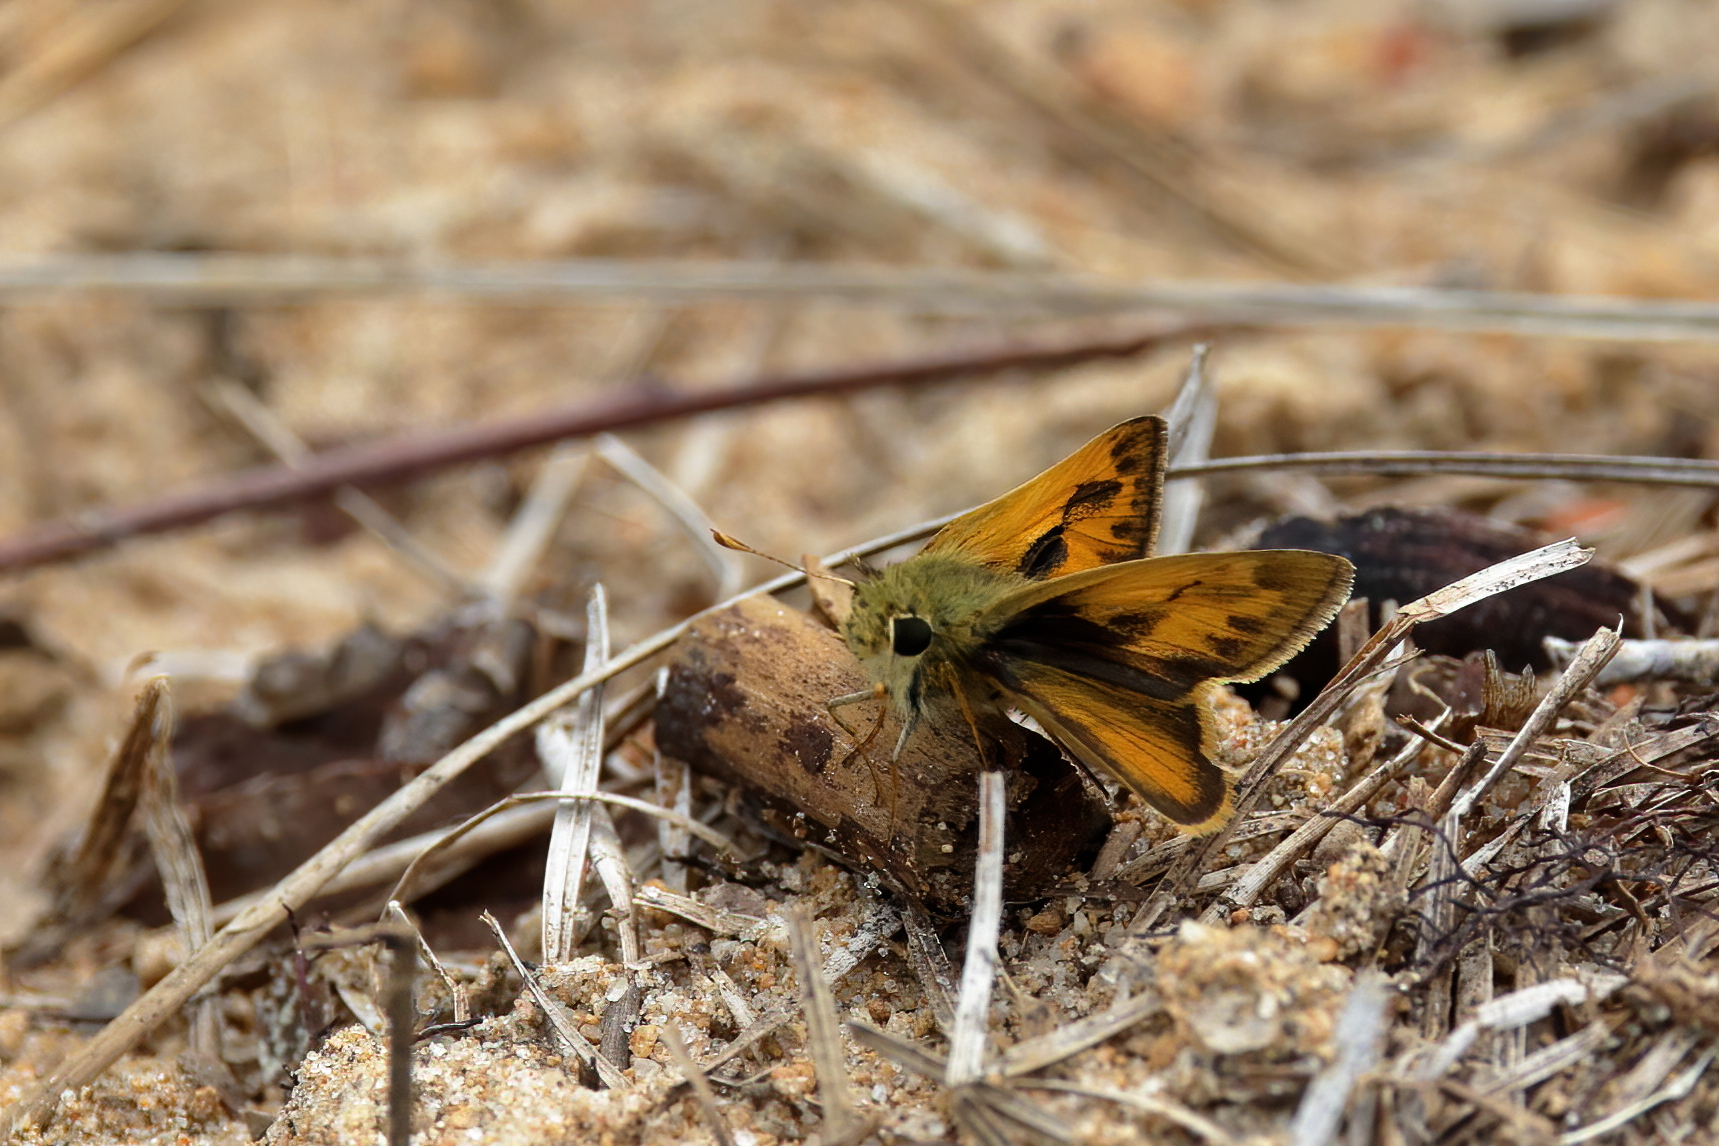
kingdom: Animalia
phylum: Arthropoda
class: Insecta
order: Lepidoptera
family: Hesperiidae
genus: Polites
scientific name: Polites vibex
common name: Whirlabout
